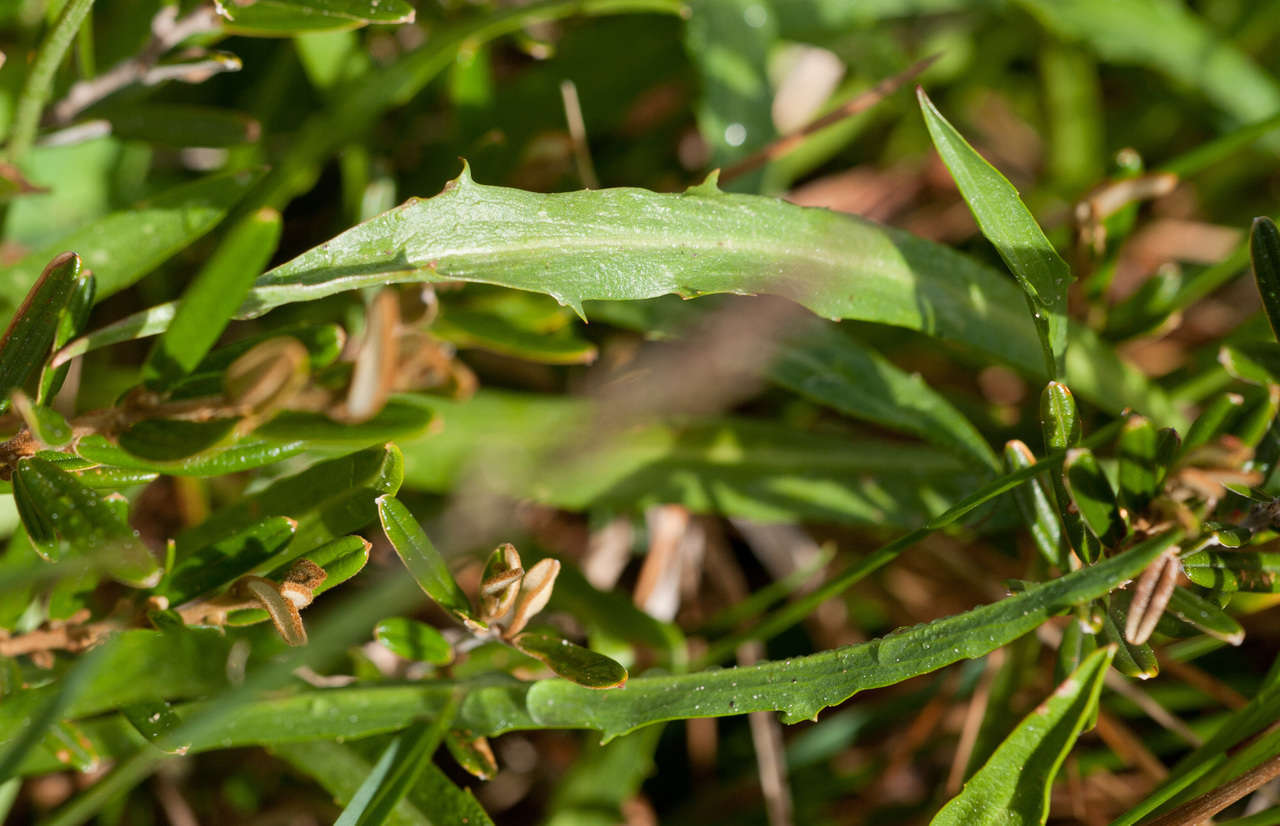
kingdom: Plantae
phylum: Tracheophyta
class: Magnoliopsida
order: Asterales
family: Asteraceae
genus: Microseris
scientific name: Microseris lanceolata
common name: Yam daisy
